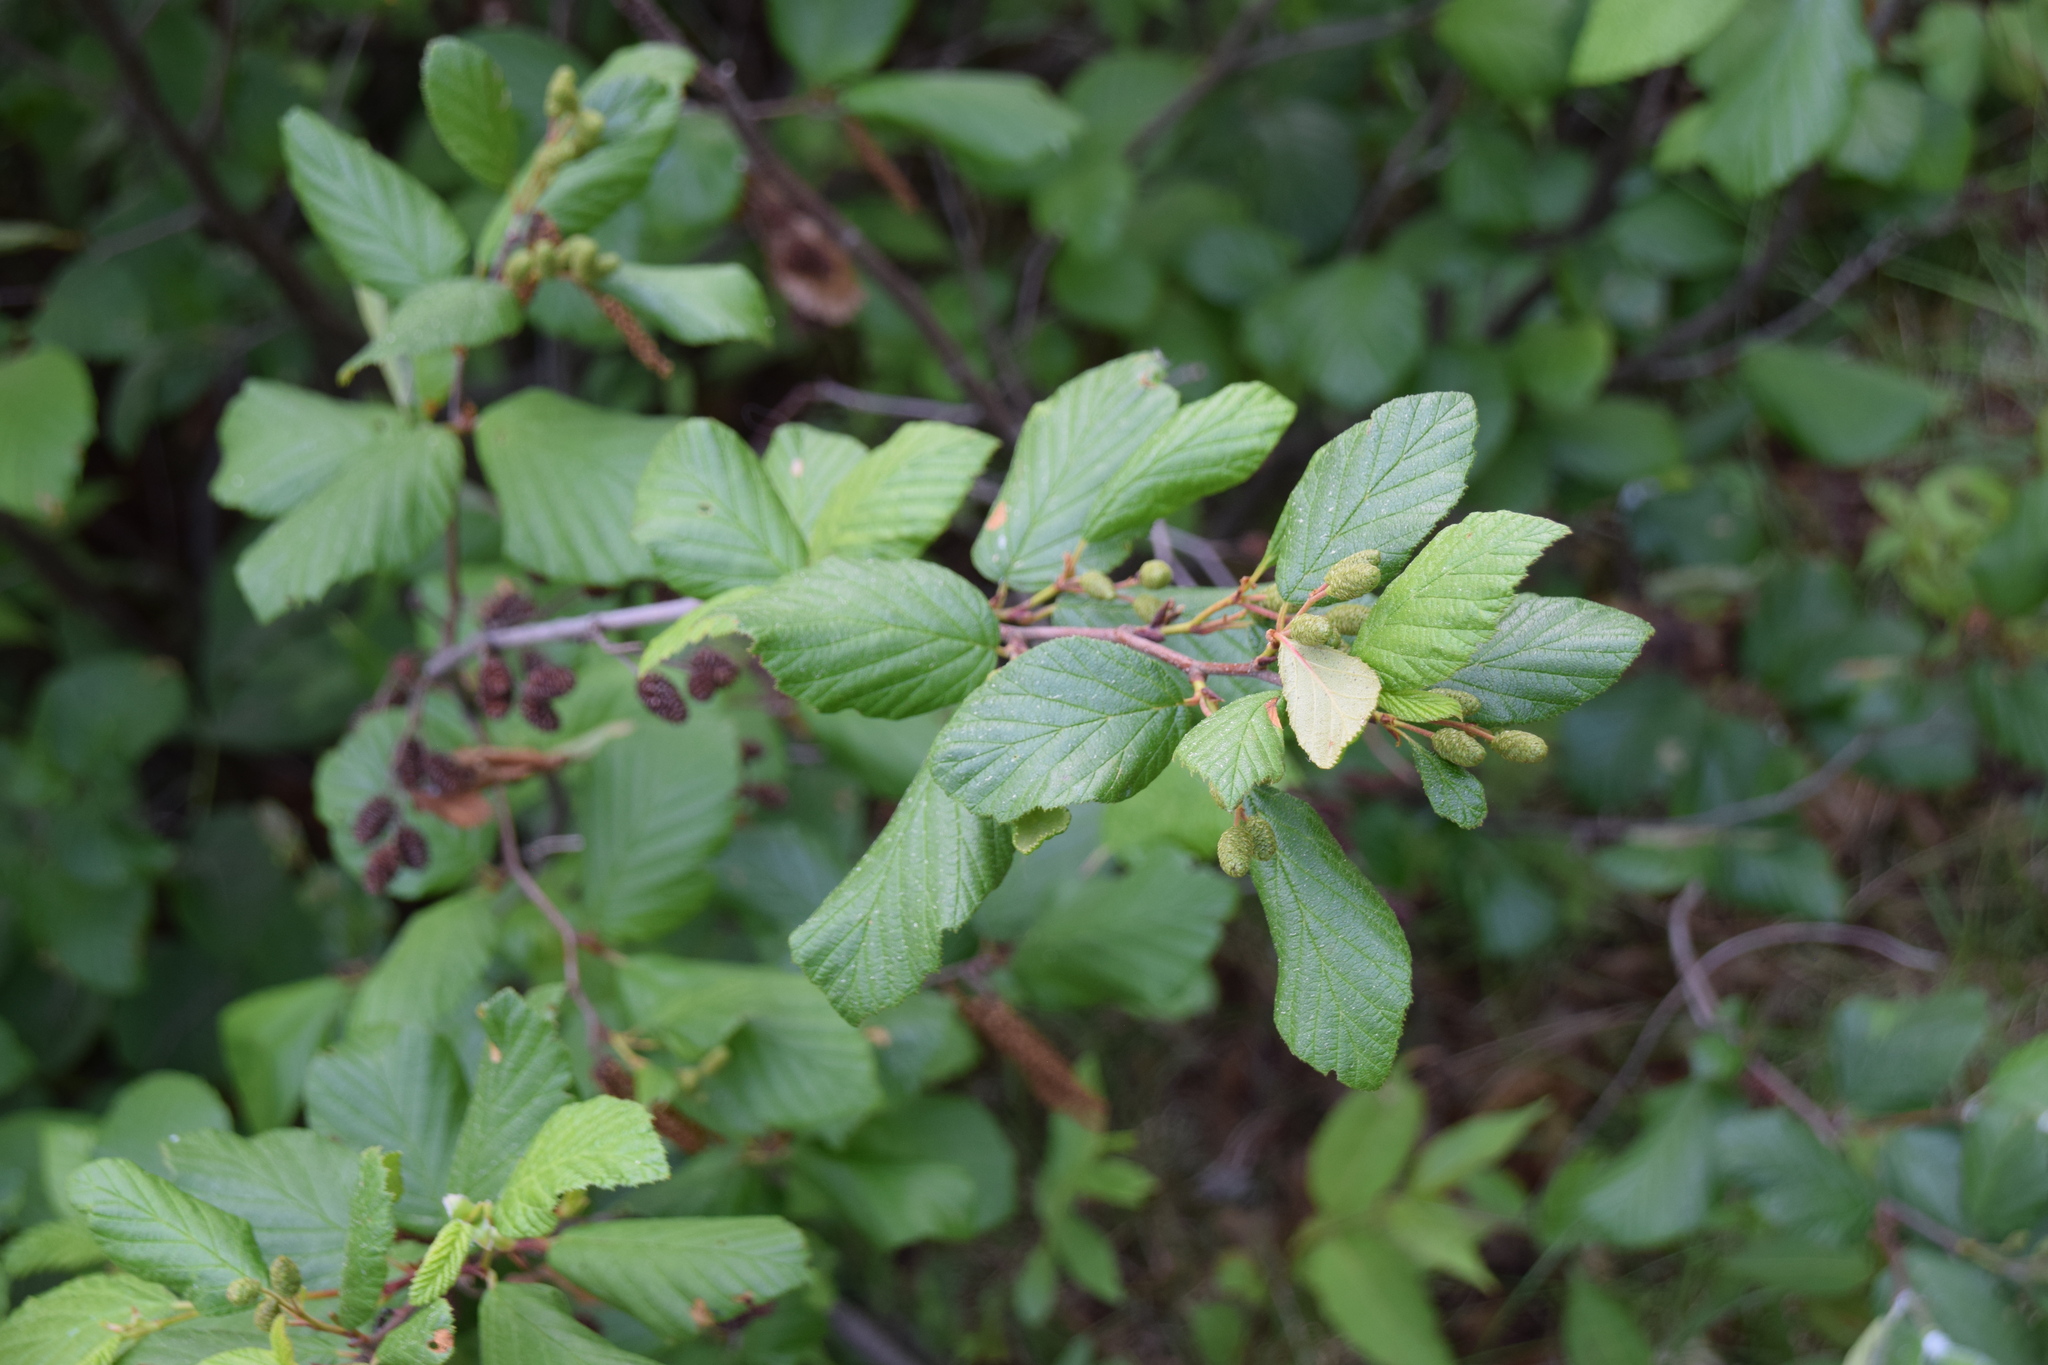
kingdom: Plantae
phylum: Tracheophyta
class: Magnoliopsida
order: Fagales
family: Betulaceae
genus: Alnus
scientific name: Alnus alnobetula
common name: Green alder
